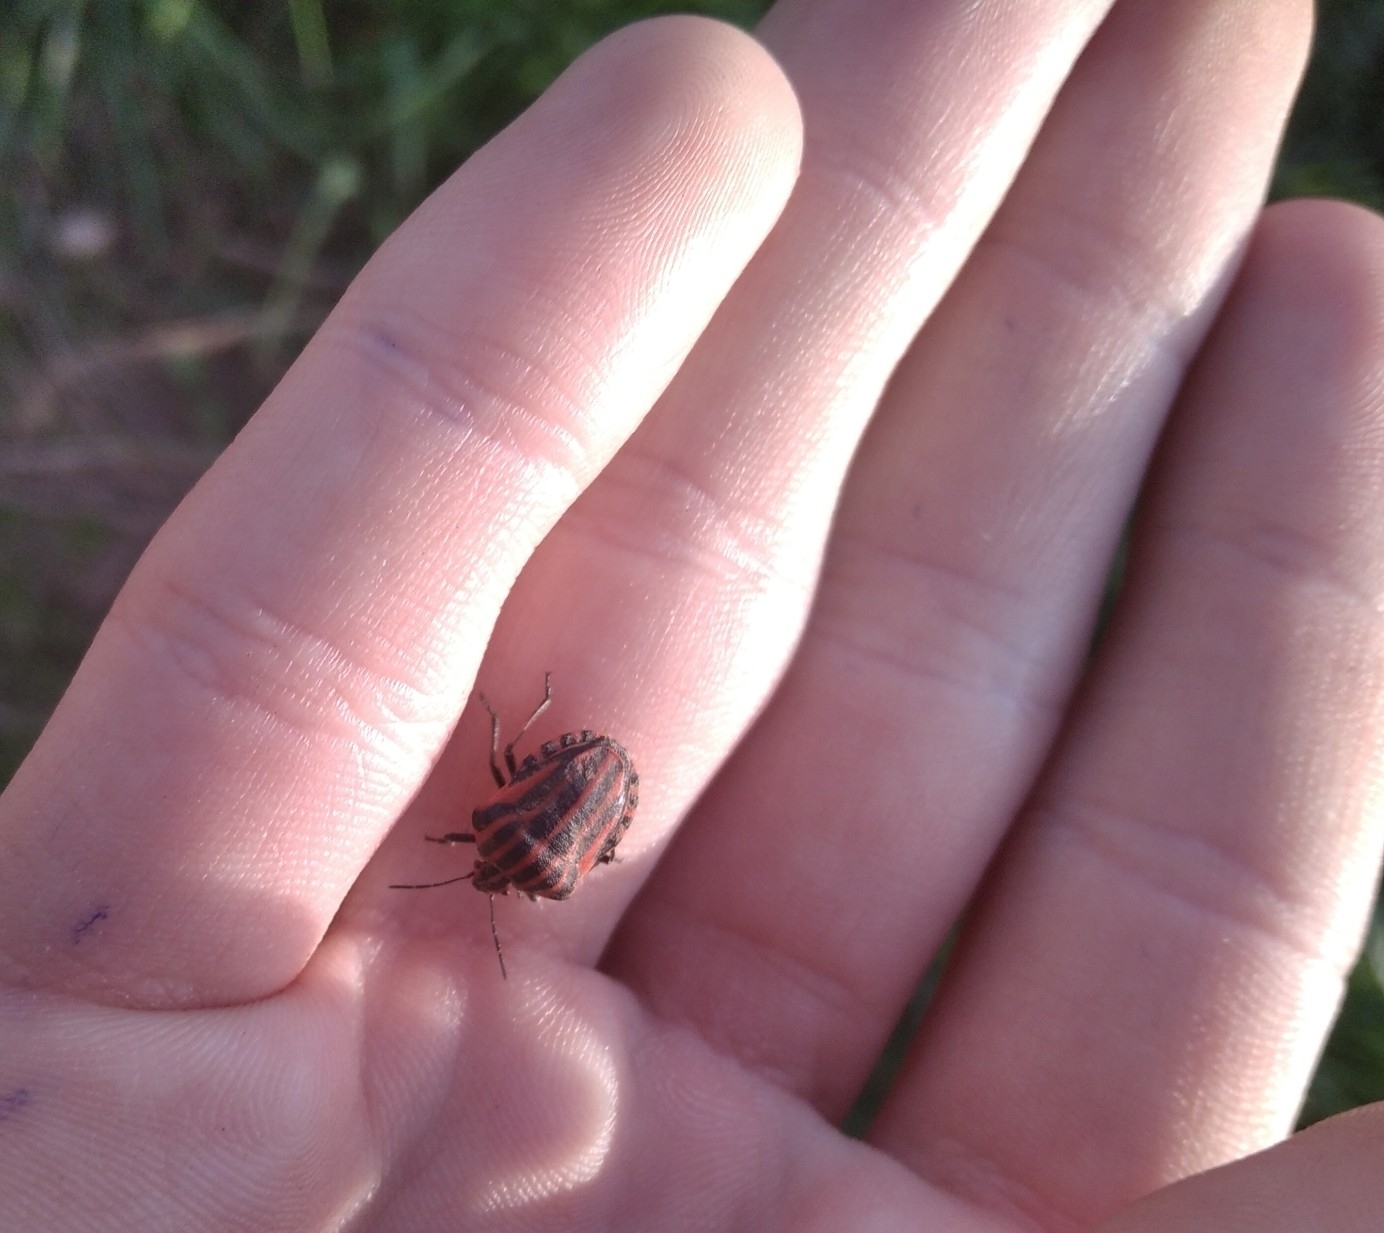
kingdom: Animalia
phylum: Arthropoda
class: Insecta
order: Hemiptera
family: Pentatomidae
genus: Graphosoma
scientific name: Graphosoma italicum
